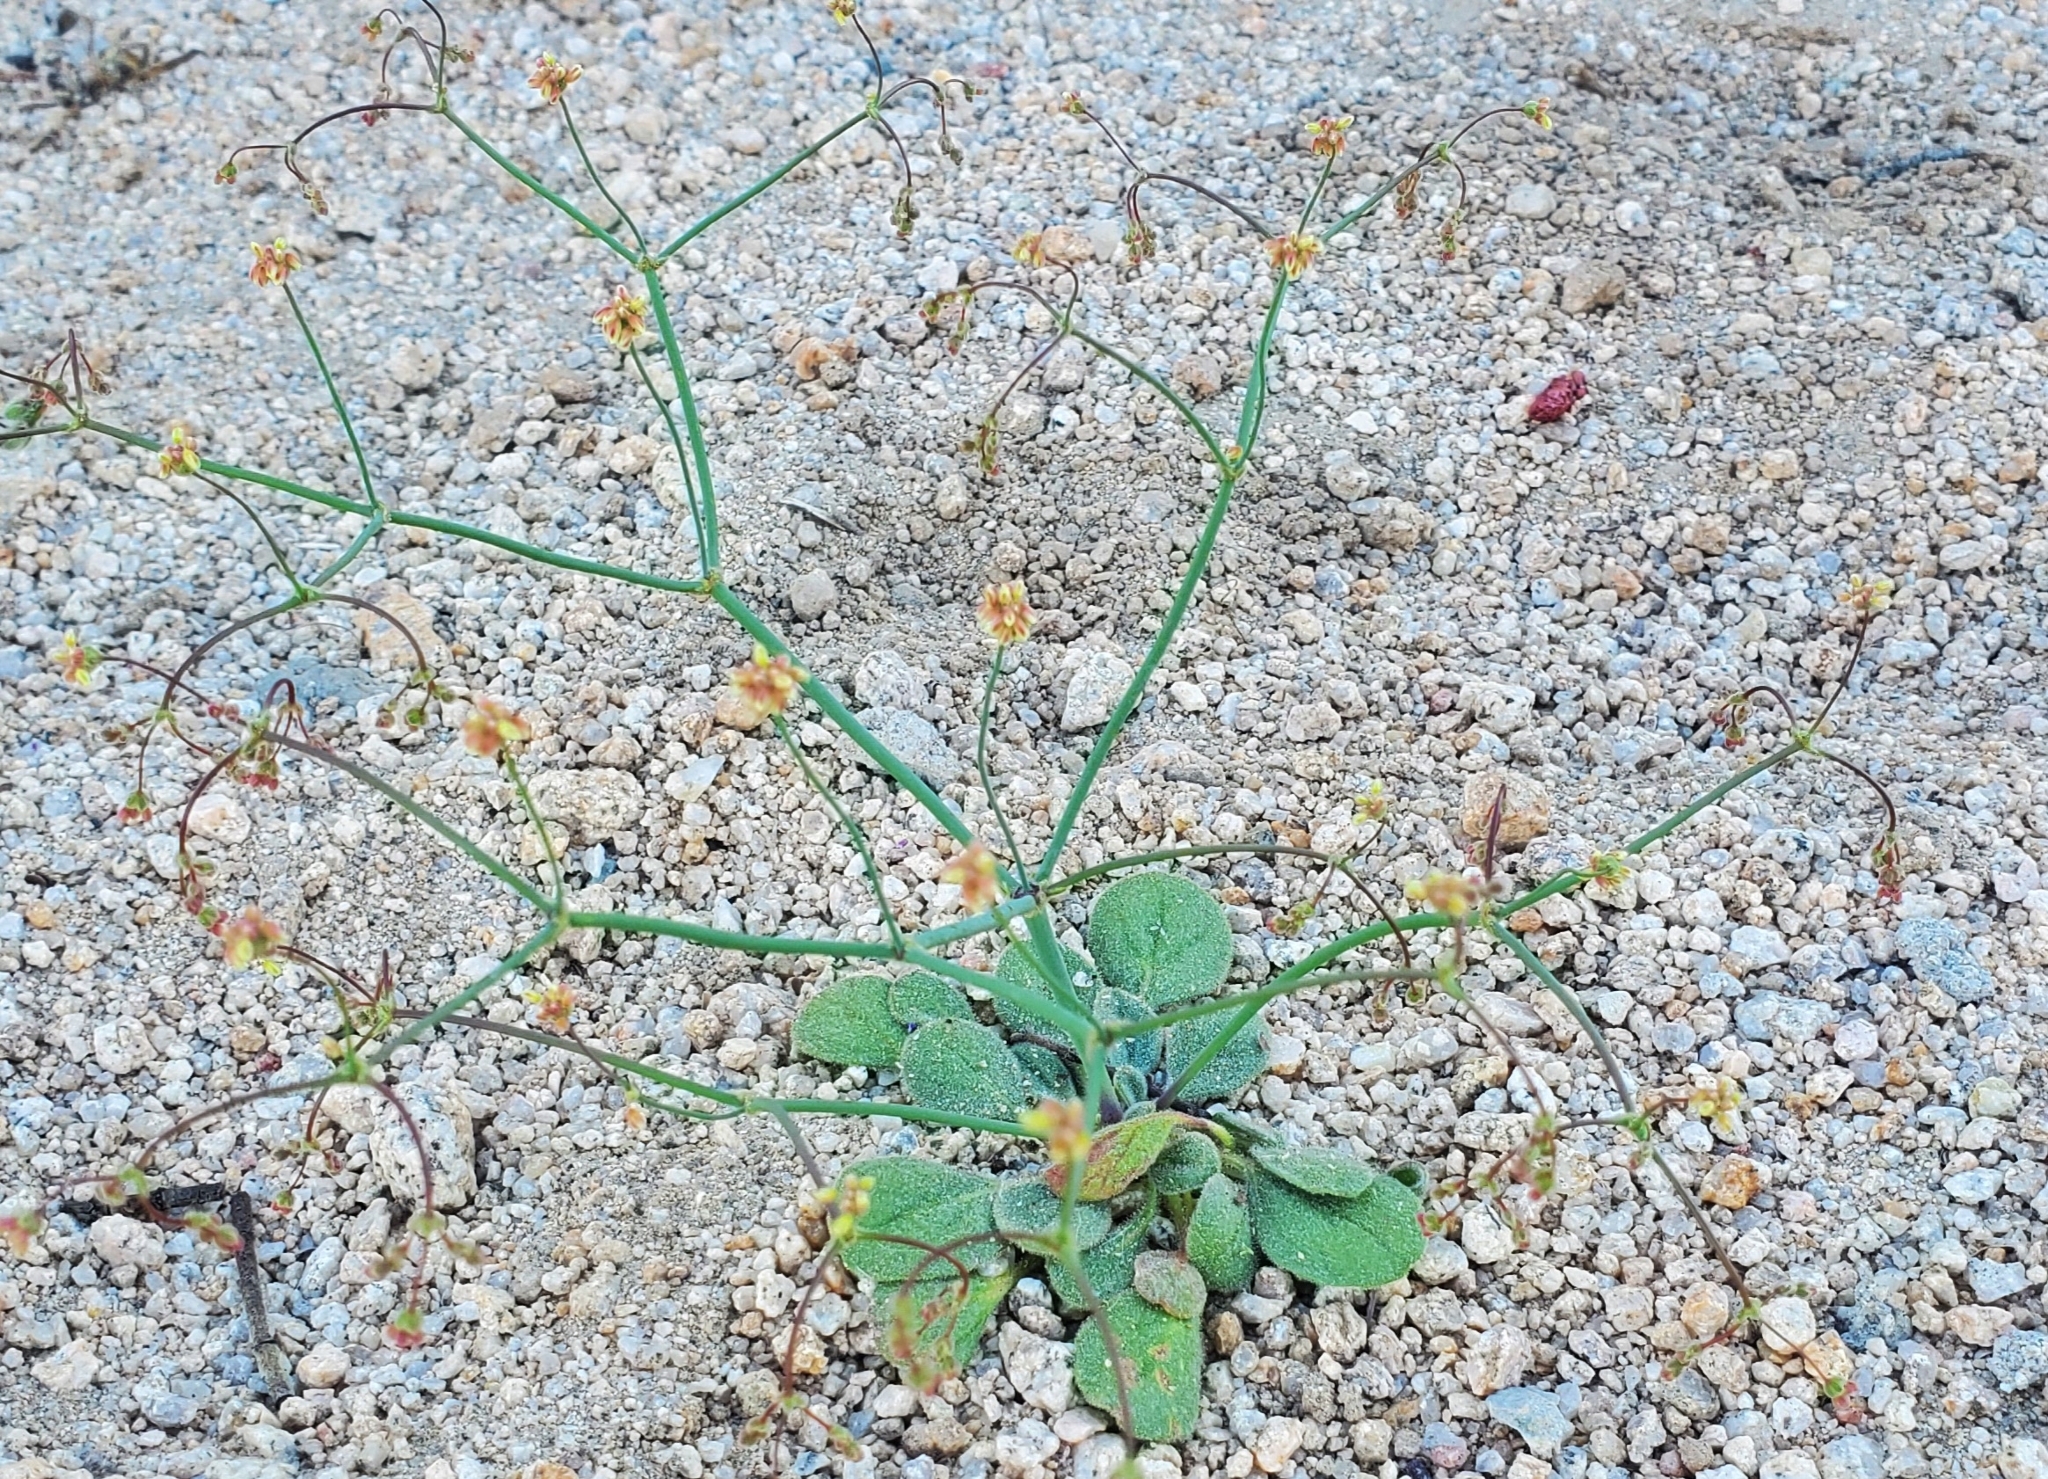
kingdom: Plantae
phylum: Tracheophyta
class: Magnoliopsida
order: Caryophyllales
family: Polygonaceae
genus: Eriogonum
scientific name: Eriogonum pusillum
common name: Yellow turbans
